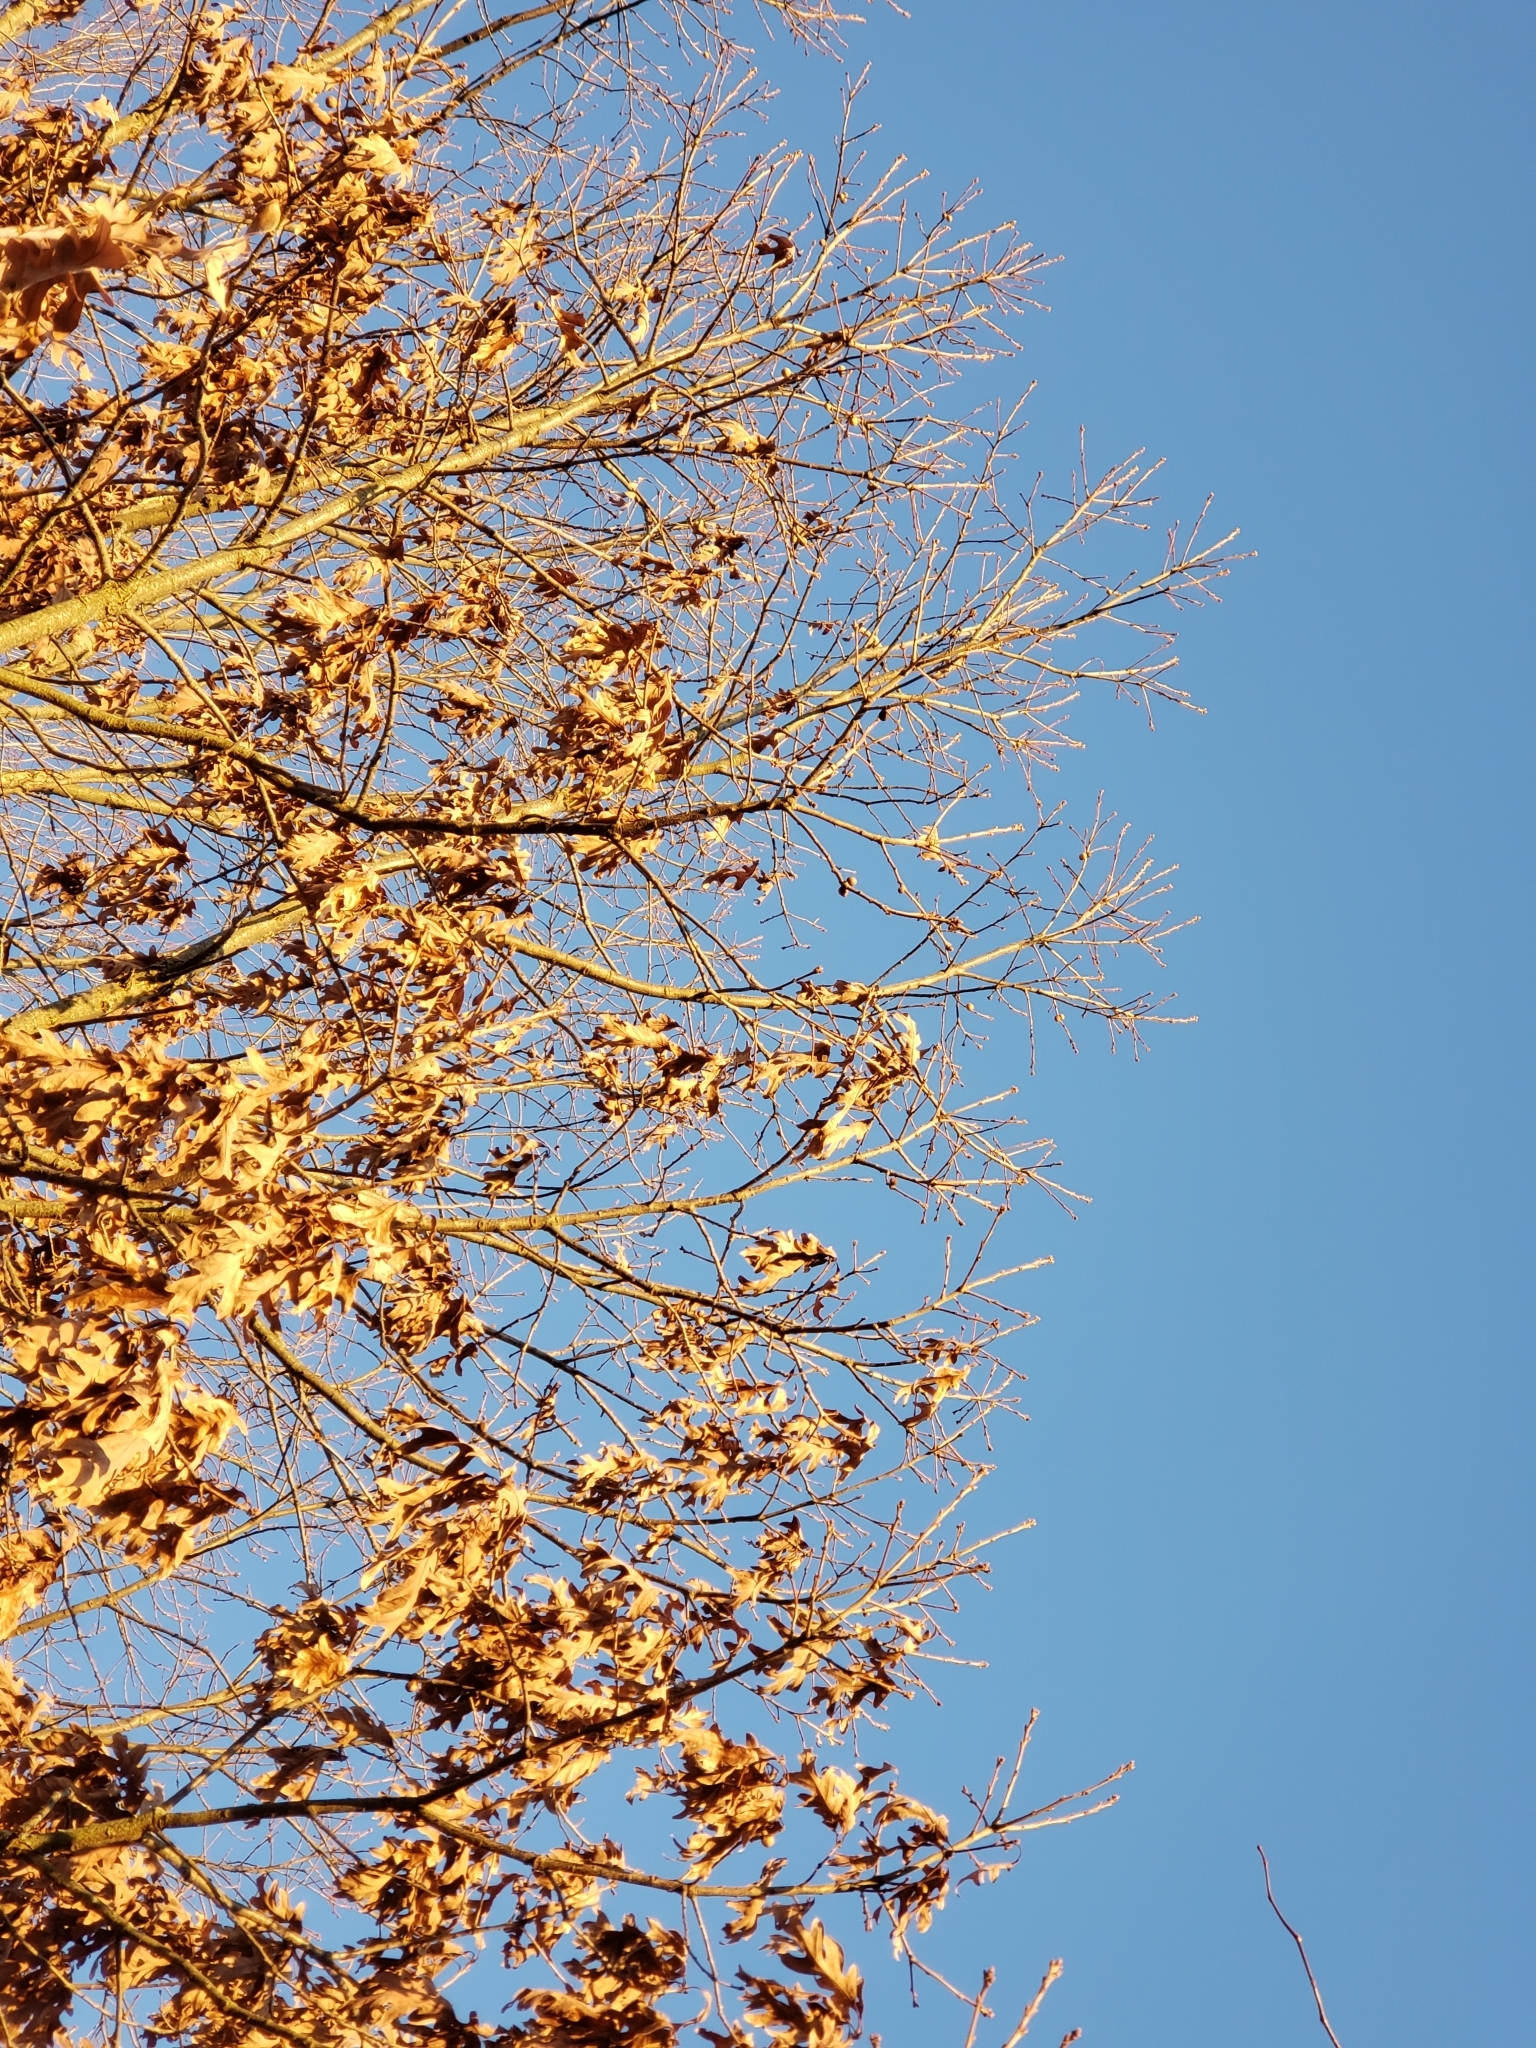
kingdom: Animalia
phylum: Arthropoda
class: Insecta
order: Hymenoptera
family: Cynipidae
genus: Disholcaspis
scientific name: Disholcaspis quercusglobulus
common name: Round bullet gall wasp
